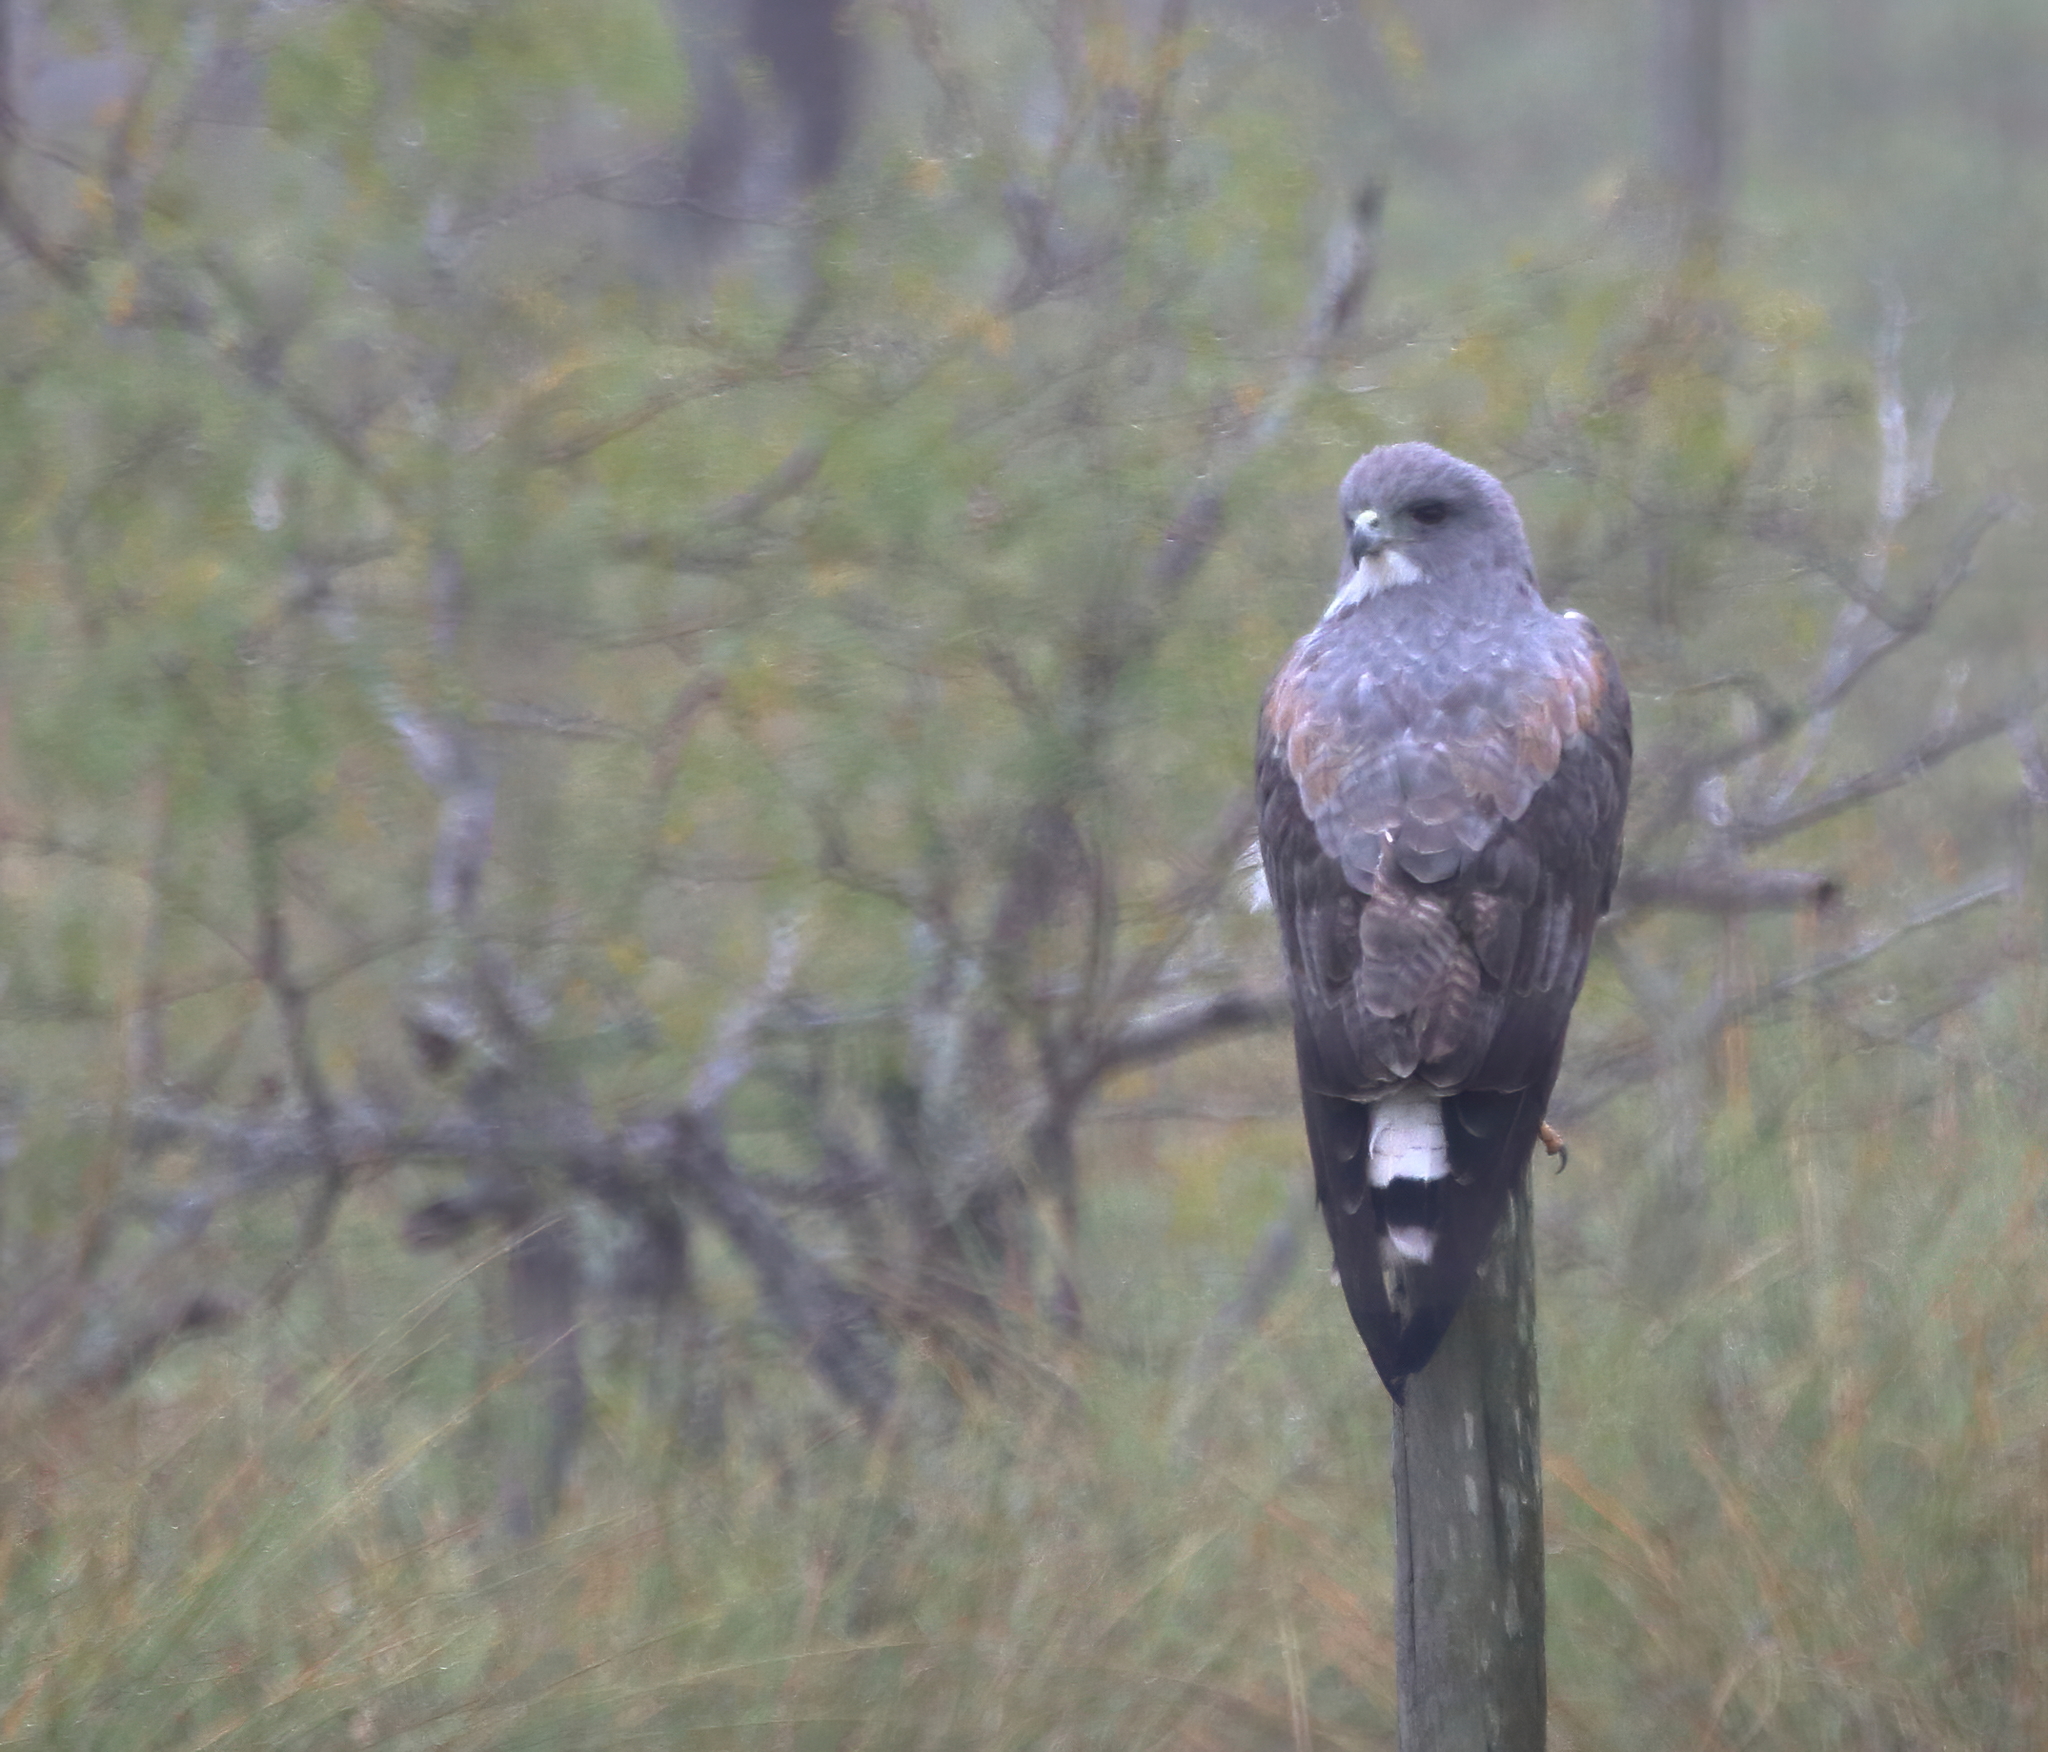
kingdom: Animalia
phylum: Chordata
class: Aves
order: Accipitriformes
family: Accipitridae
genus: Buteo
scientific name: Buteo albicaudatus
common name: White-tailed hawk
